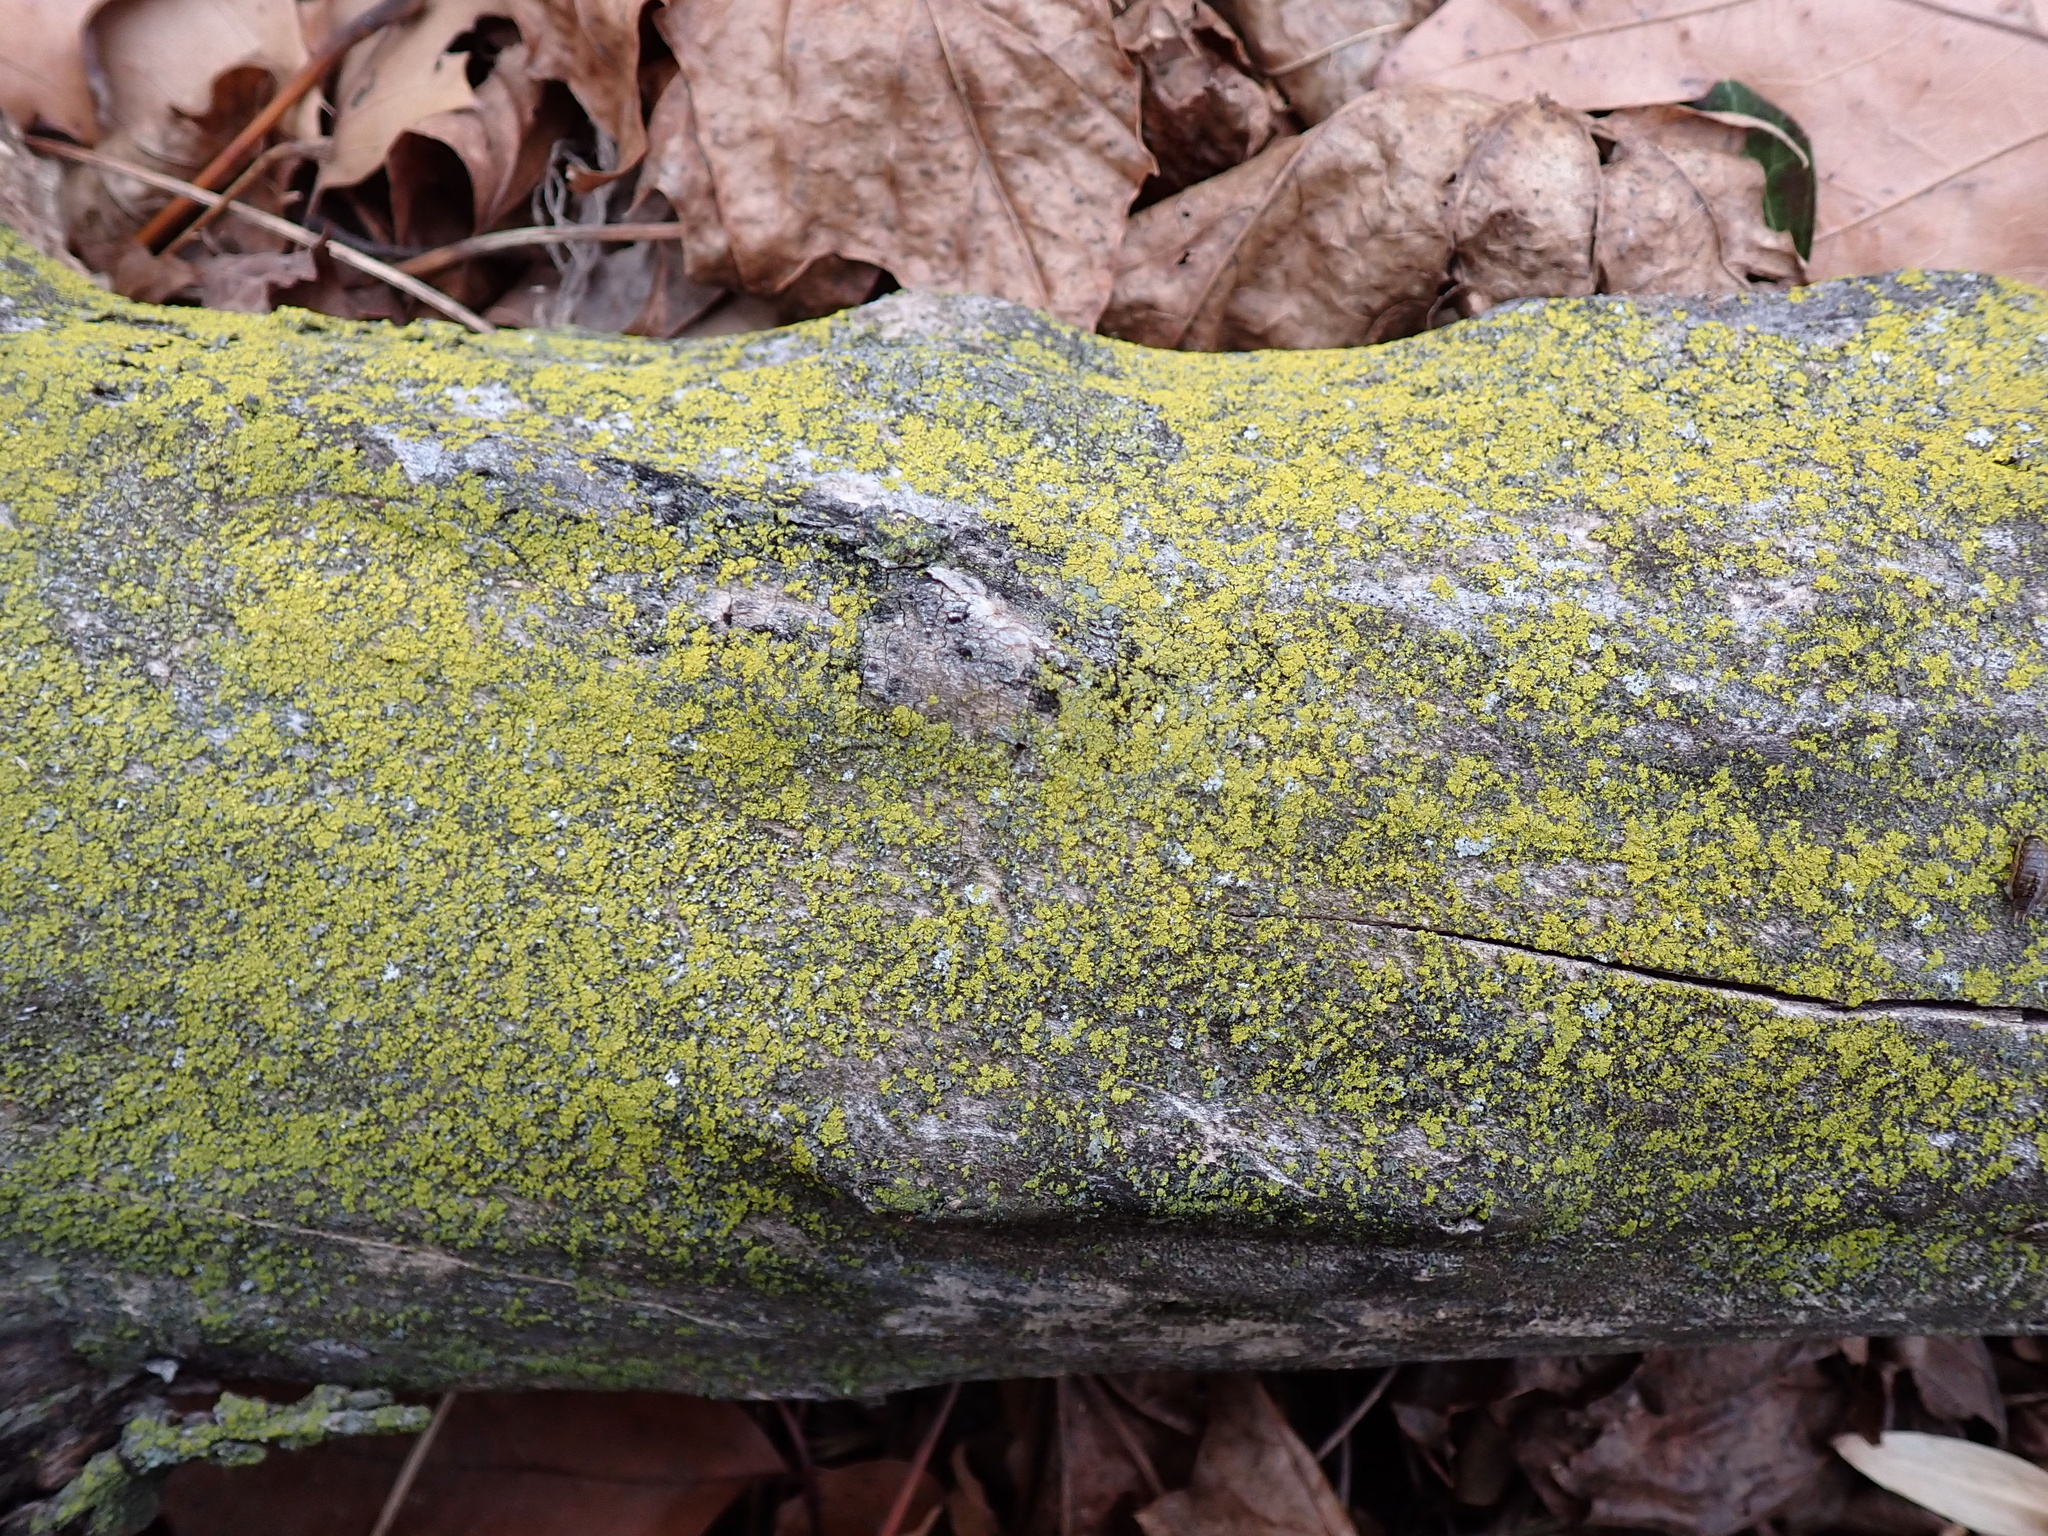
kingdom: Fungi
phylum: Ascomycota
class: Candelariomycetes
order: Candelariales
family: Candelariaceae
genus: Candelaria
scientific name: Candelaria concolor
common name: Candleflame lichen
